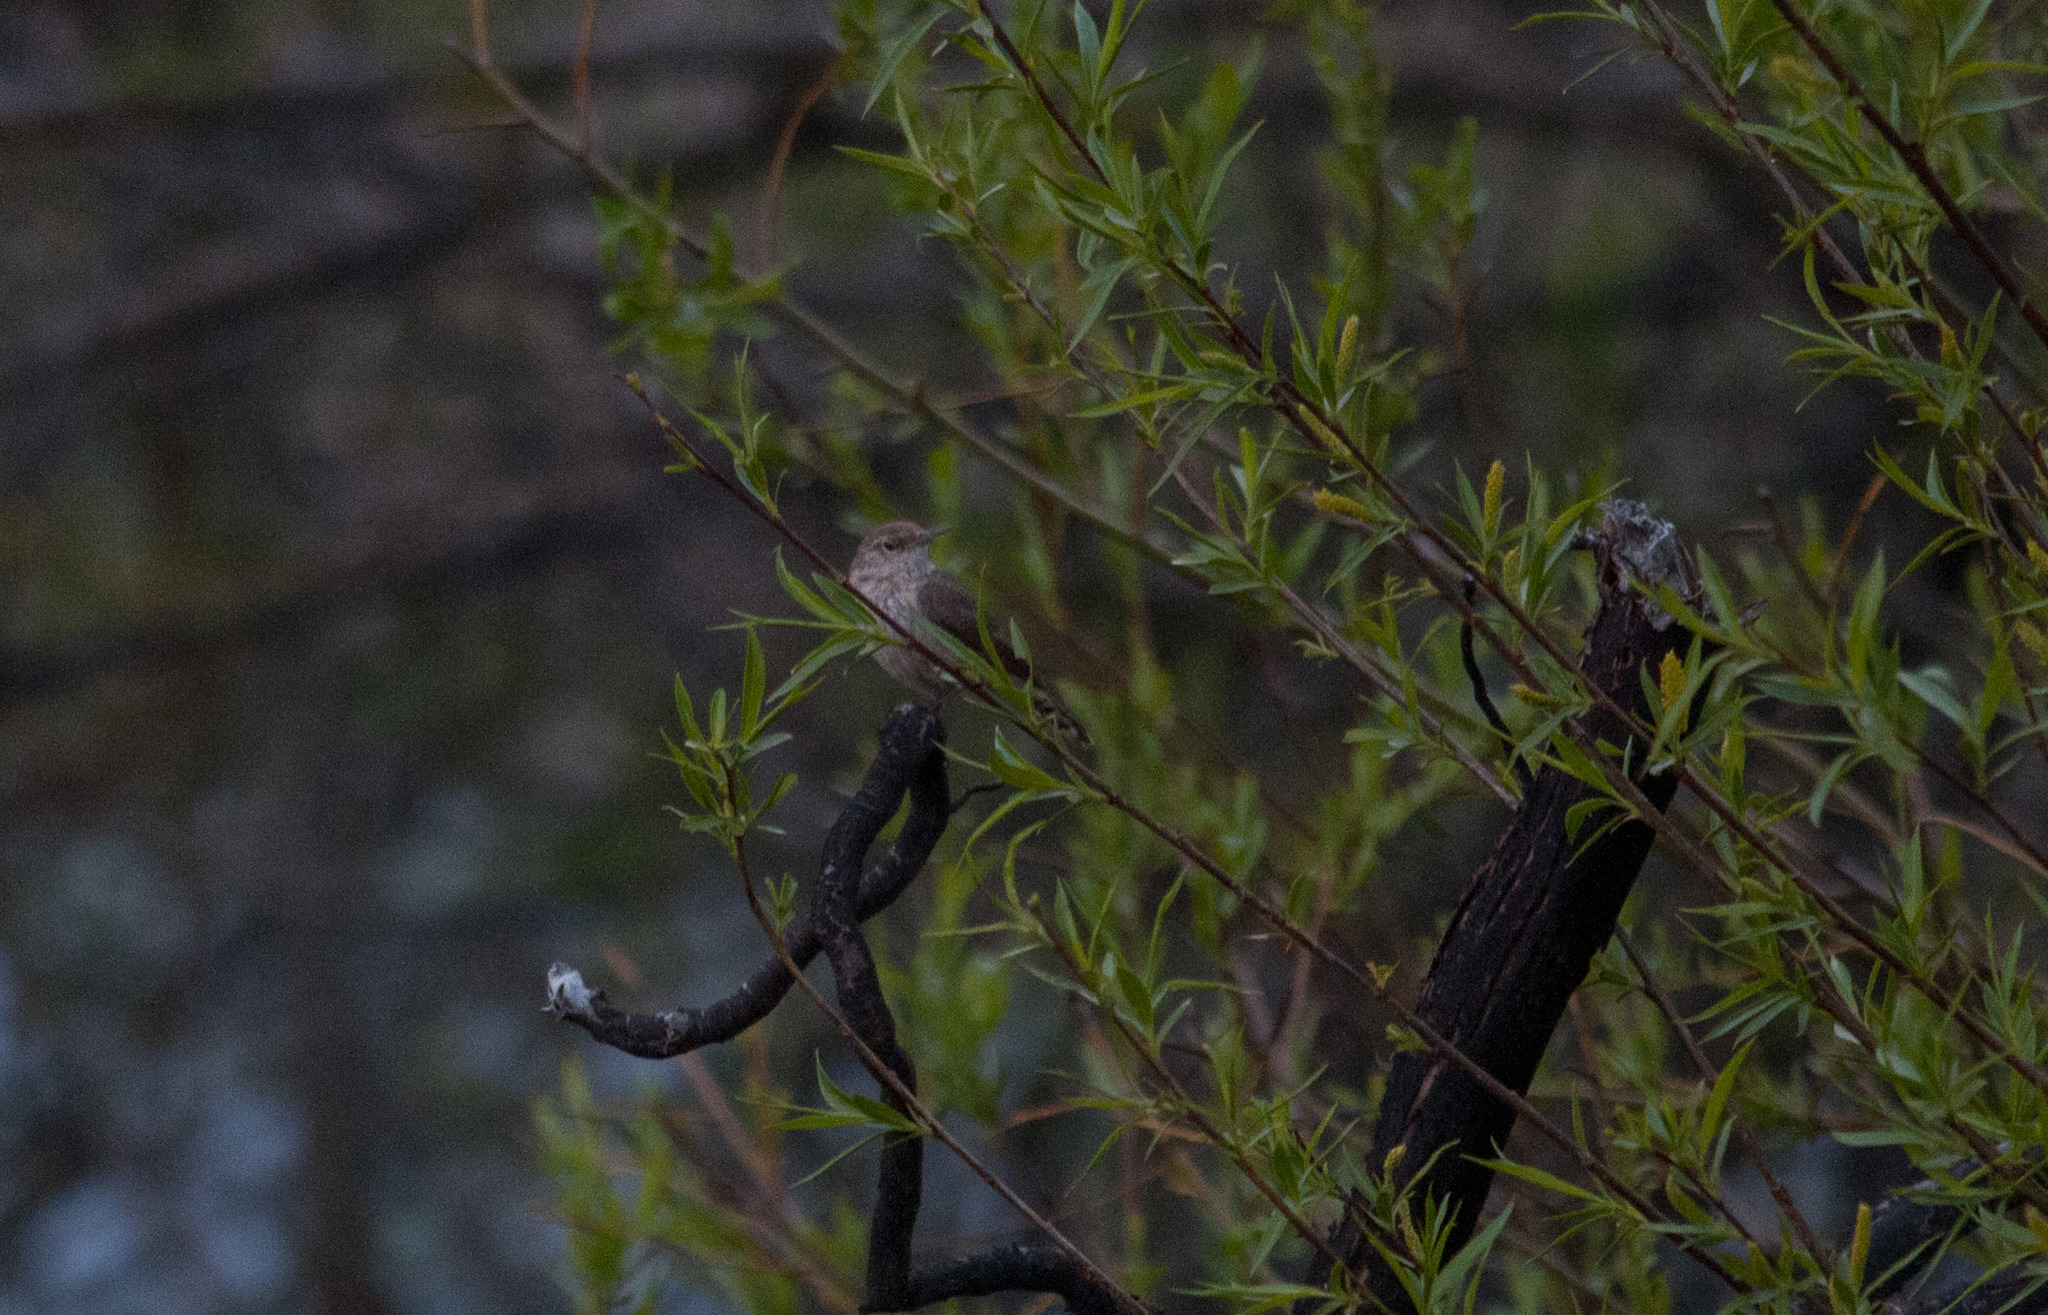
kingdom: Animalia
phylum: Chordata
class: Aves
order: Passeriformes
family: Troglodytidae
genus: Salpinctes
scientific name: Salpinctes obsoletus
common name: Rock wren
